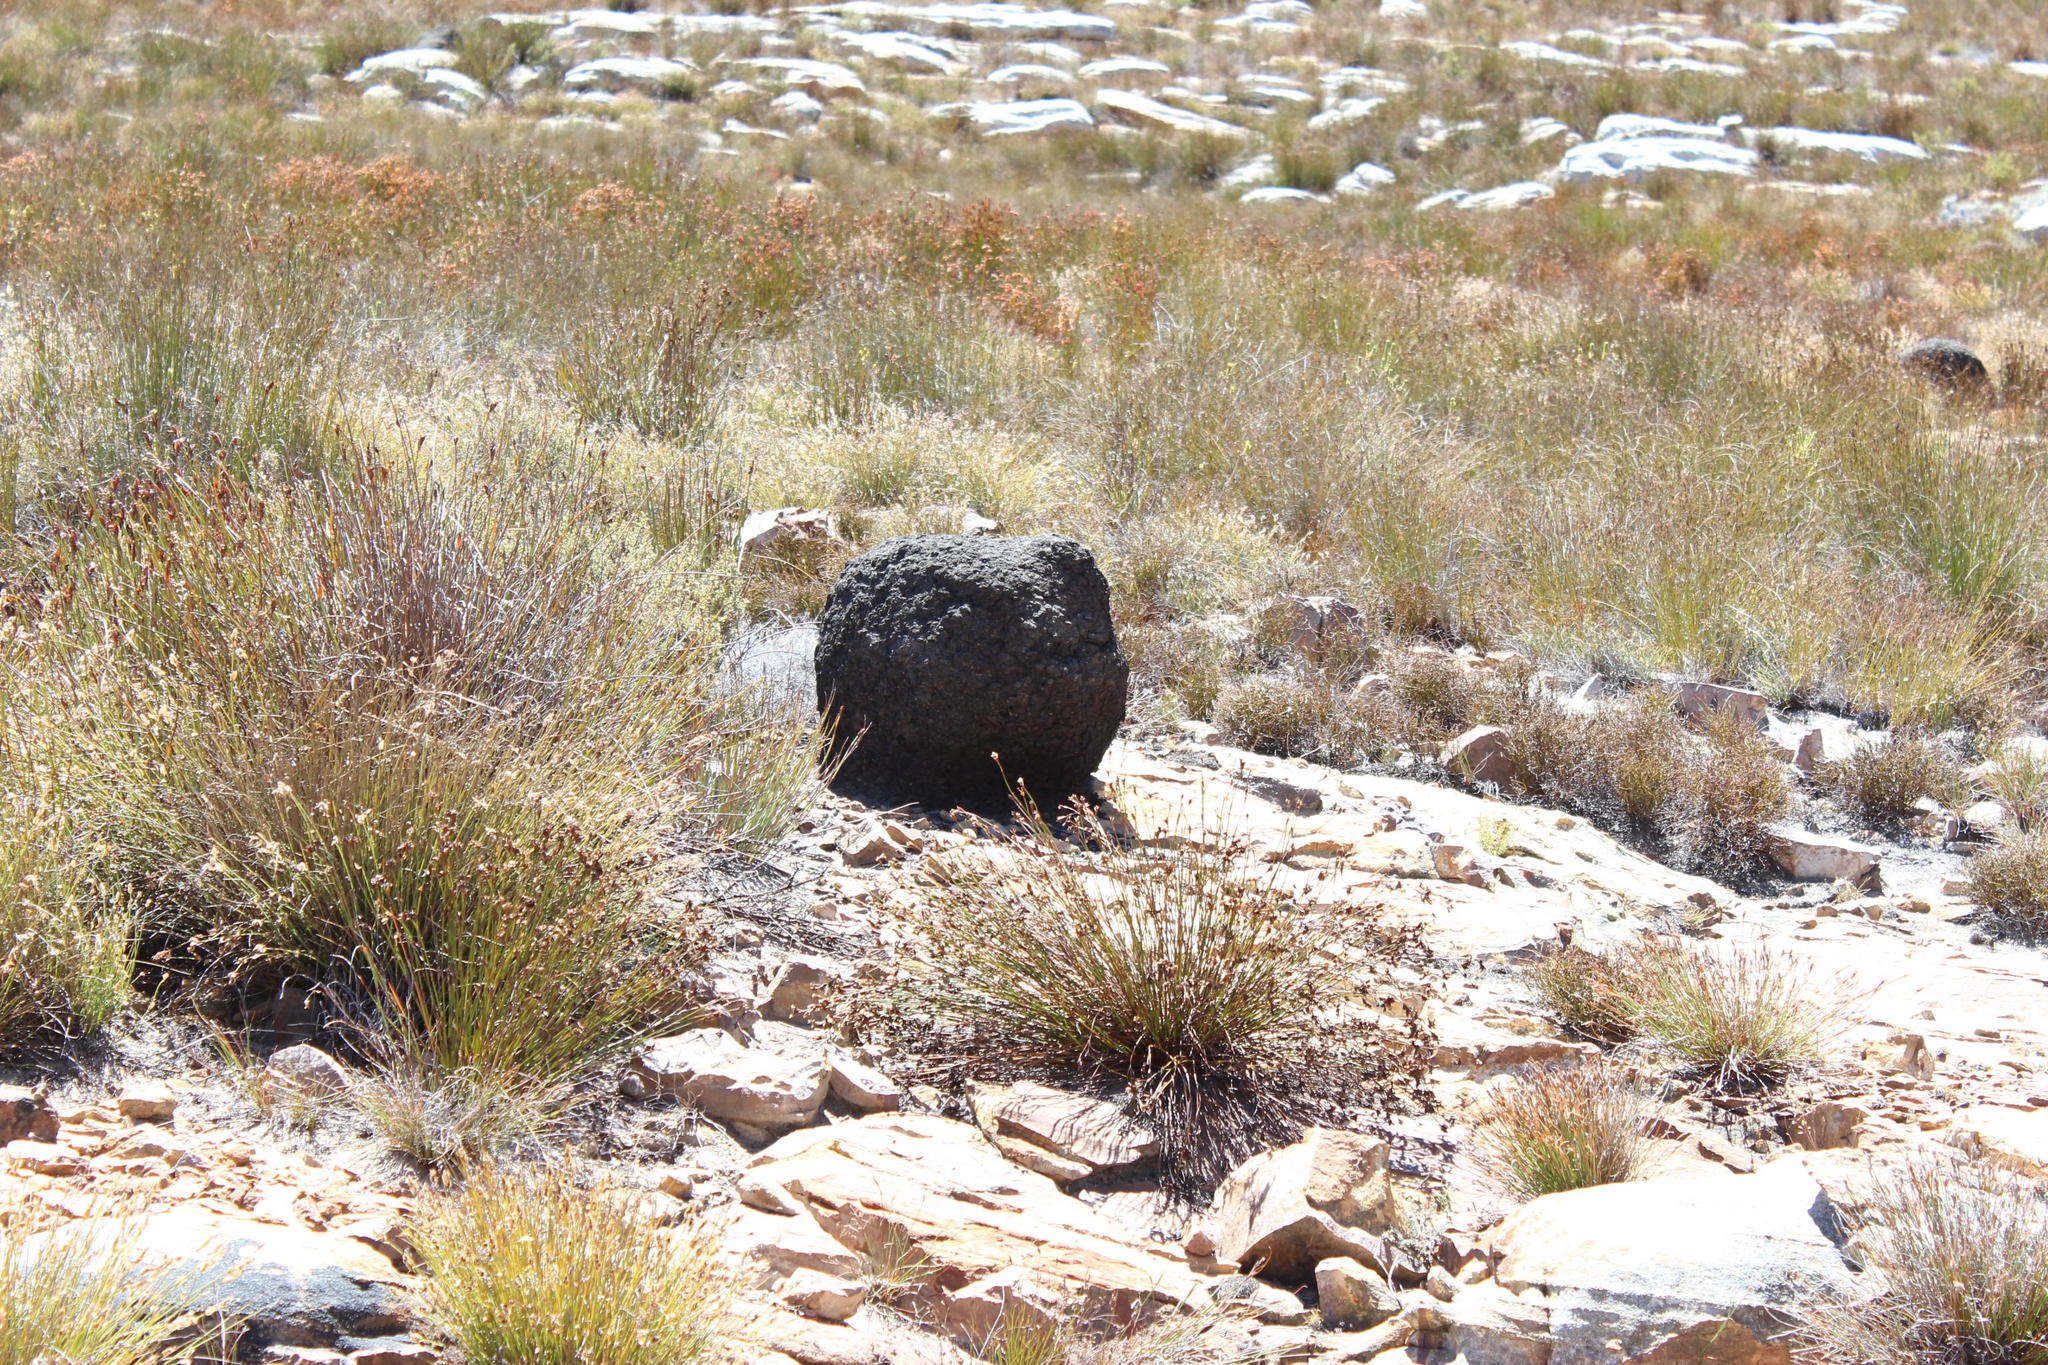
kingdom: Animalia
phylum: Arthropoda
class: Insecta
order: Blattodea
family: Termitidae
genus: Amitermes
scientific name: Amitermes hastatus
